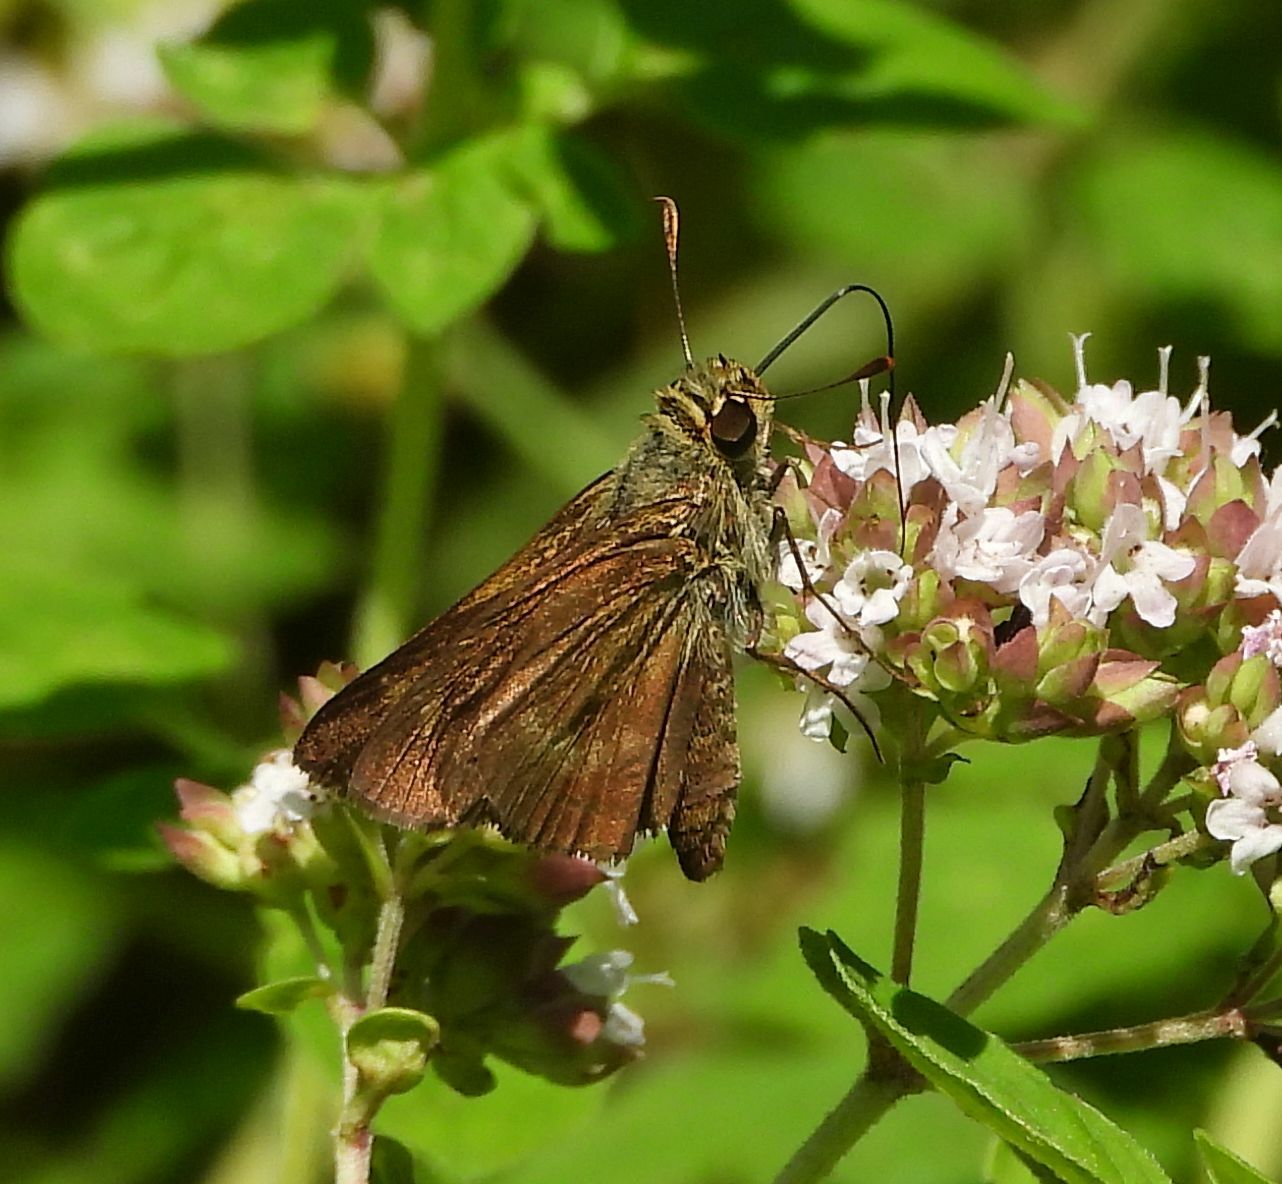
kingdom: Animalia
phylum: Arthropoda
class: Insecta
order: Lepidoptera
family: Hesperiidae
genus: Polites
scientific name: Polites egeremet
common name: Northern broken-dash
